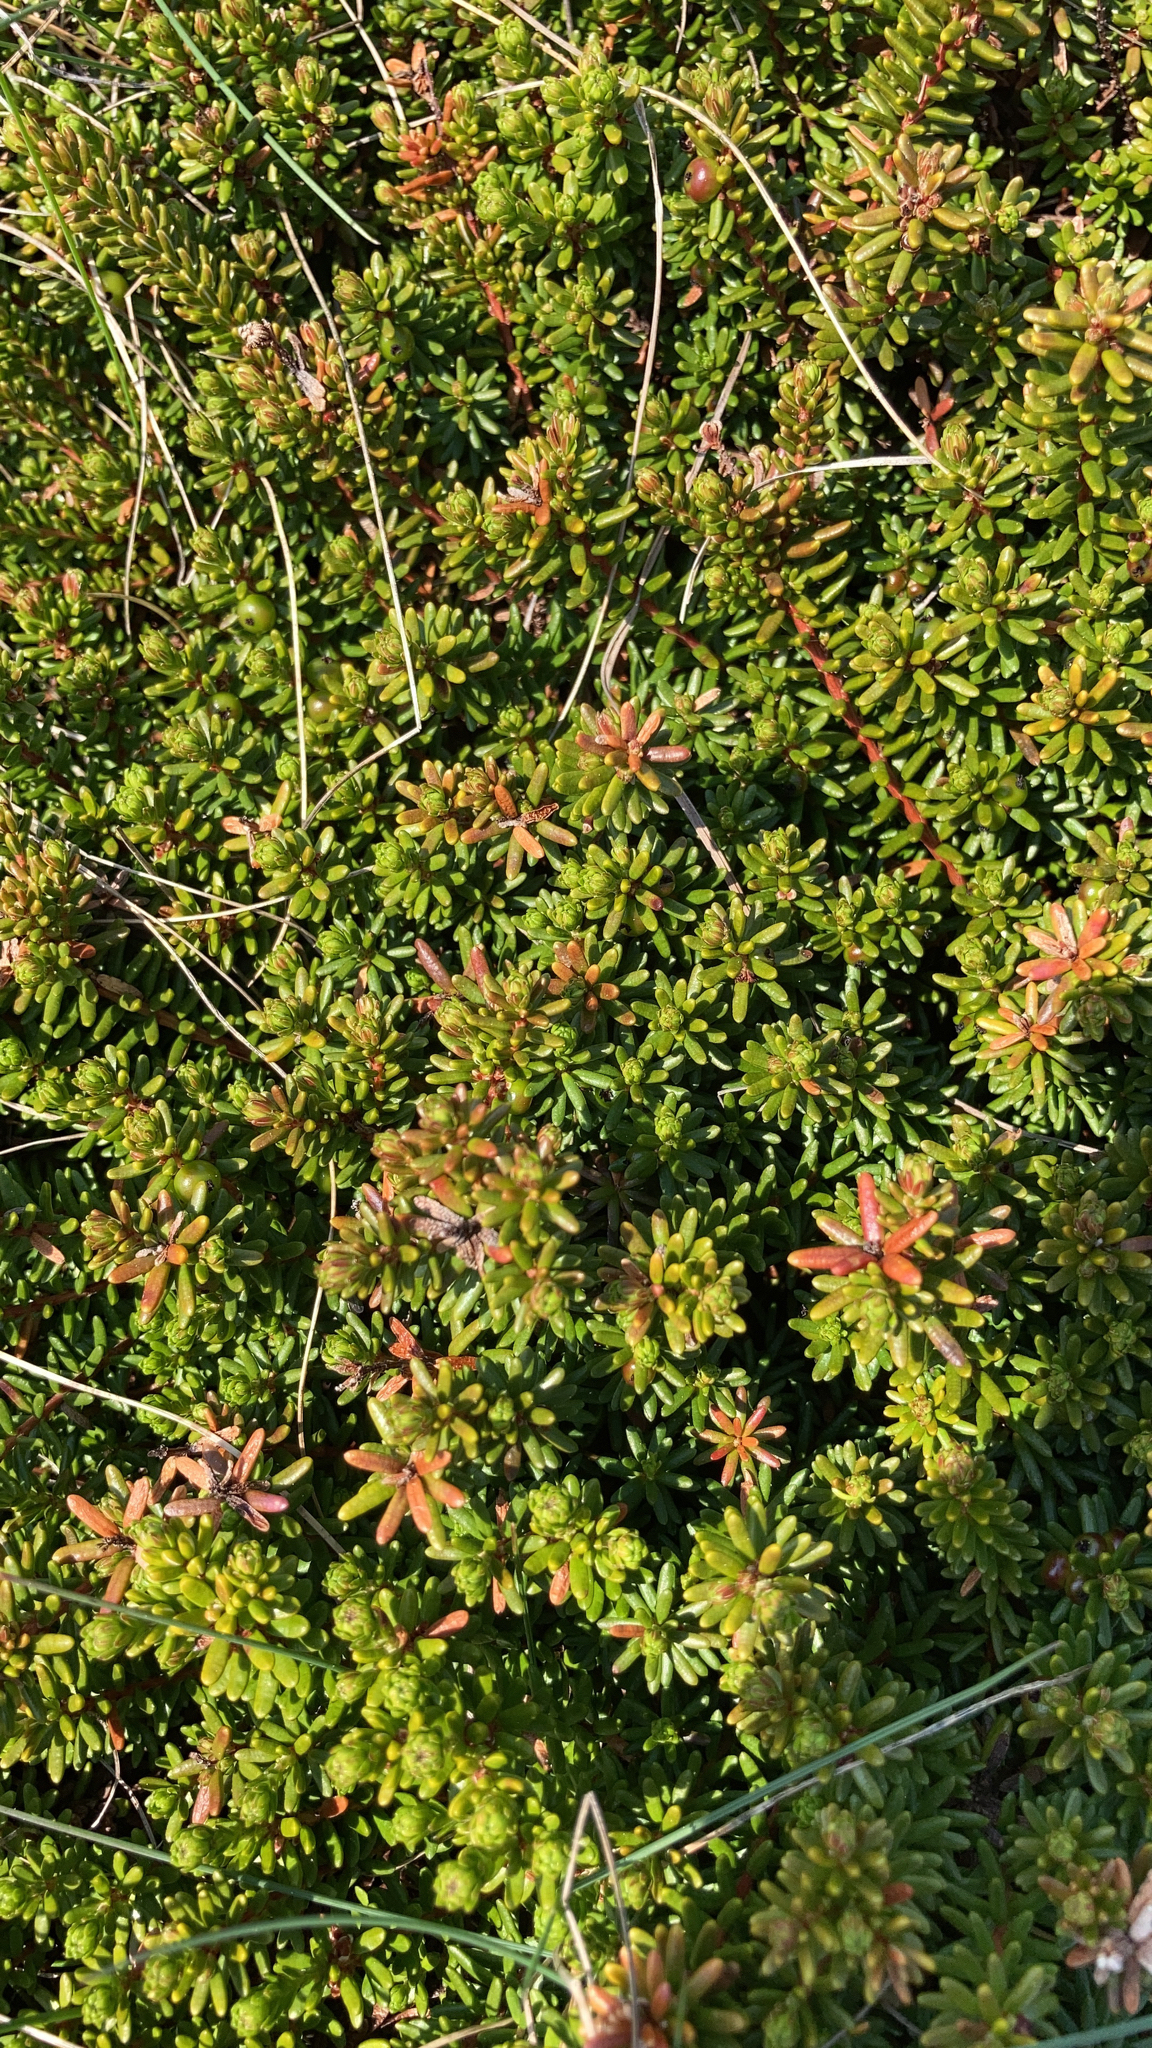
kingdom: Plantae
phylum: Tracheophyta
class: Magnoliopsida
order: Ericales
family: Ericaceae
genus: Empetrum
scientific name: Empetrum nigrum
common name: Black crowberry
